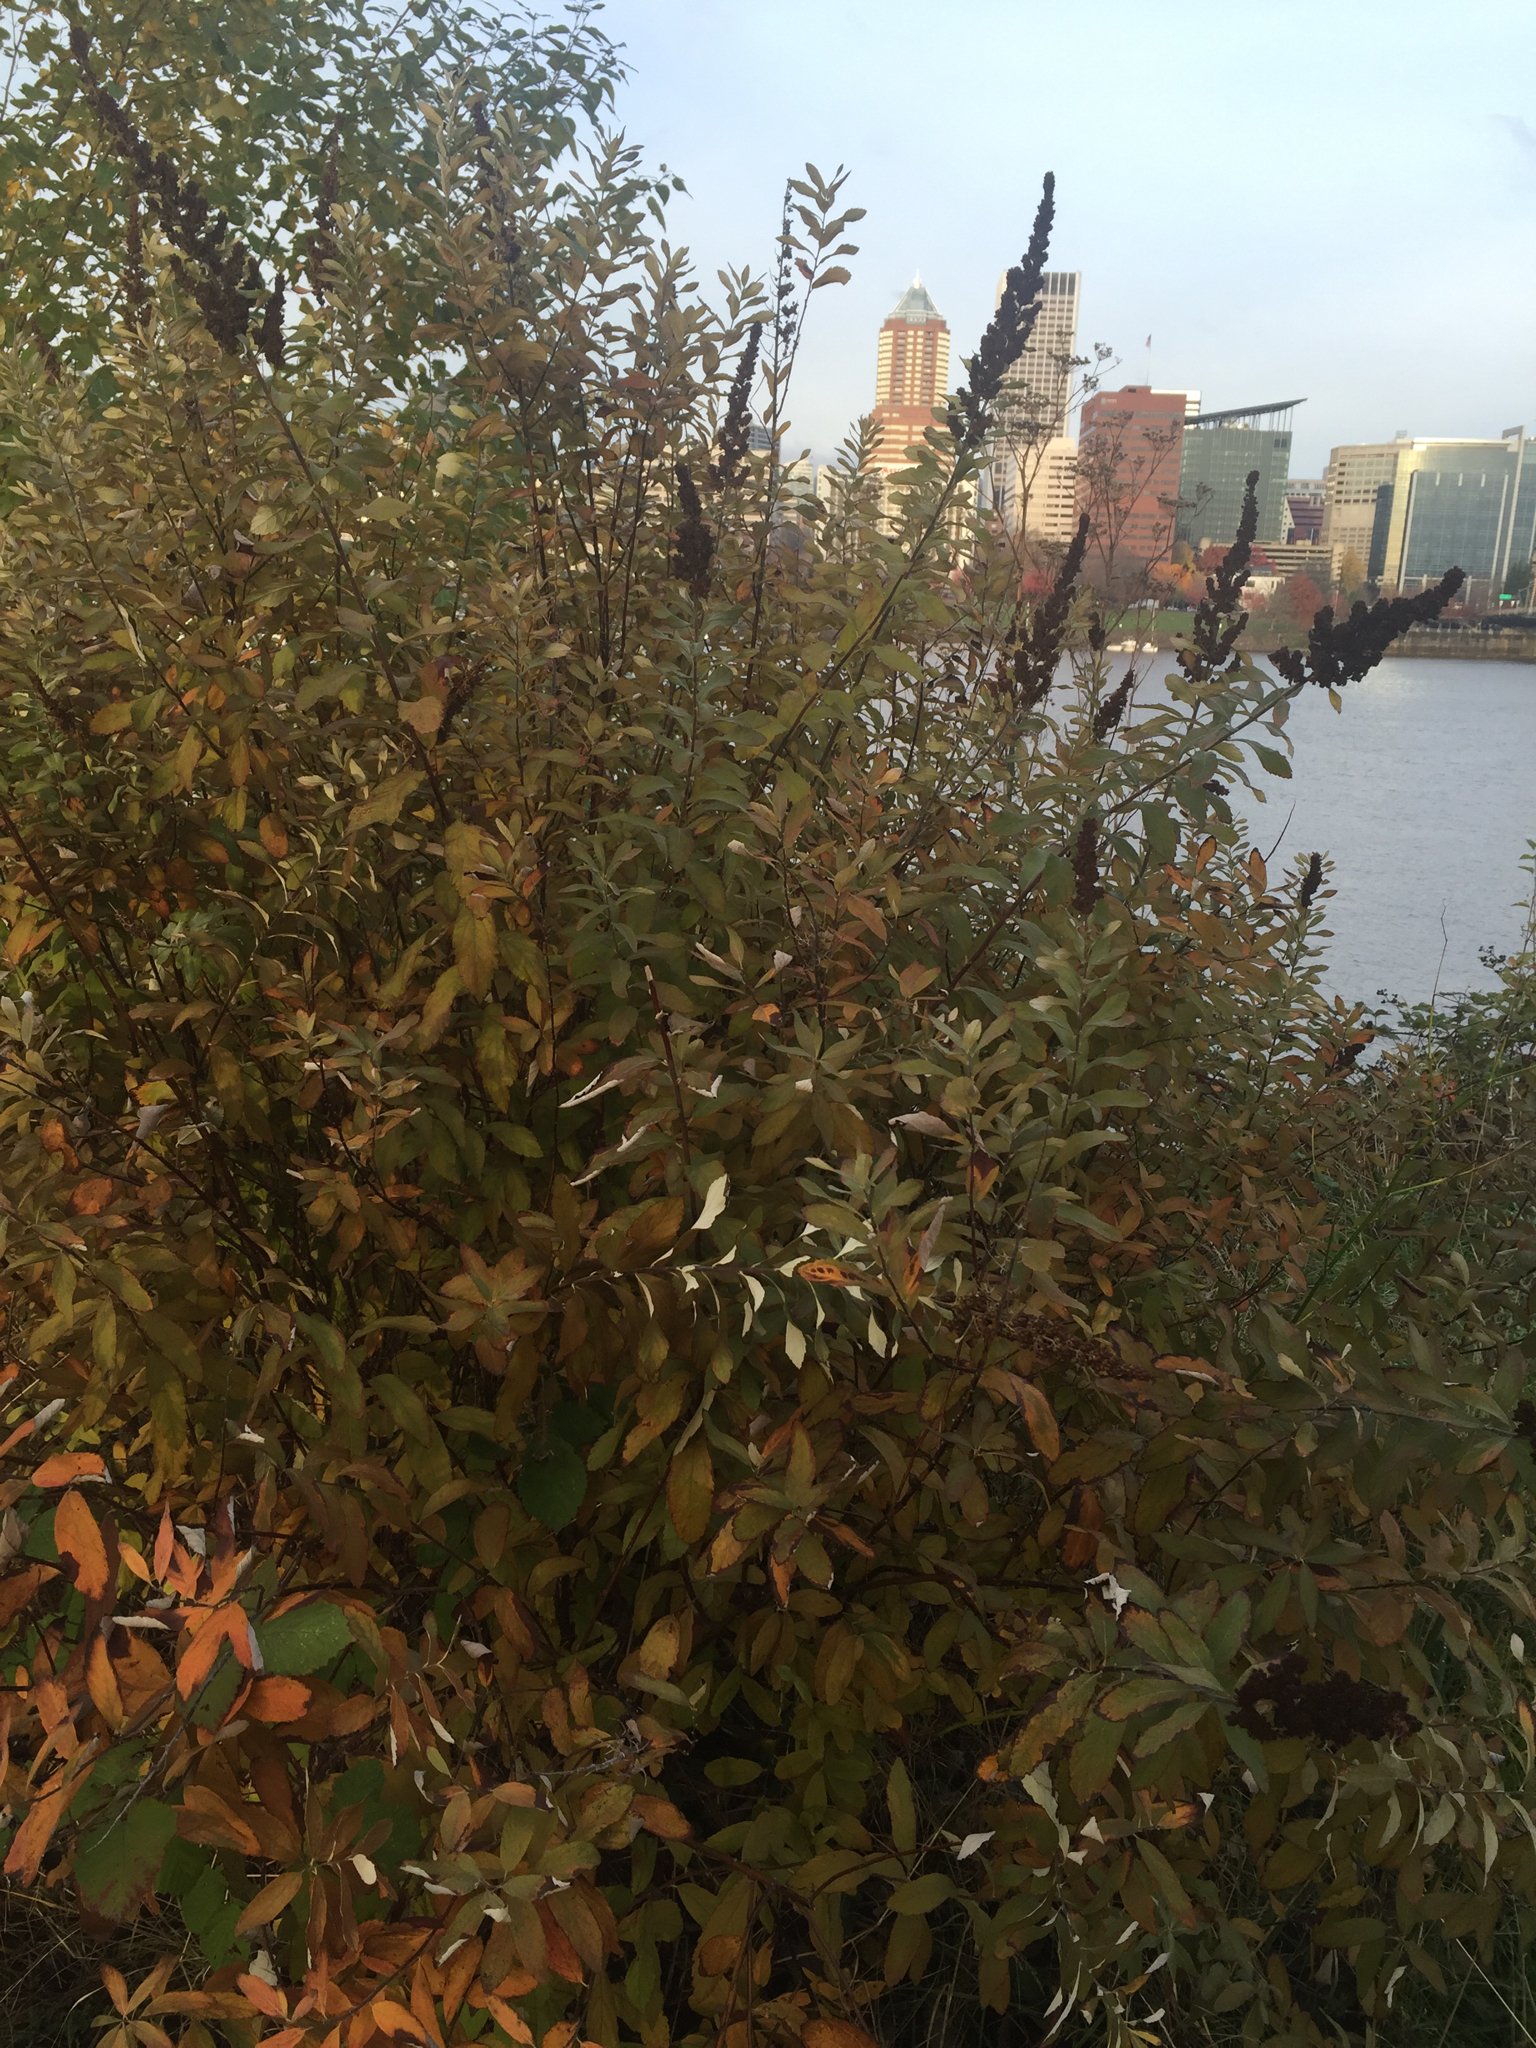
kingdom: Plantae
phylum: Tracheophyta
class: Magnoliopsida
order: Rosales
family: Rosaceae
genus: Spiraea
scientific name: Spiraea douglasii
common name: Steeplebush
